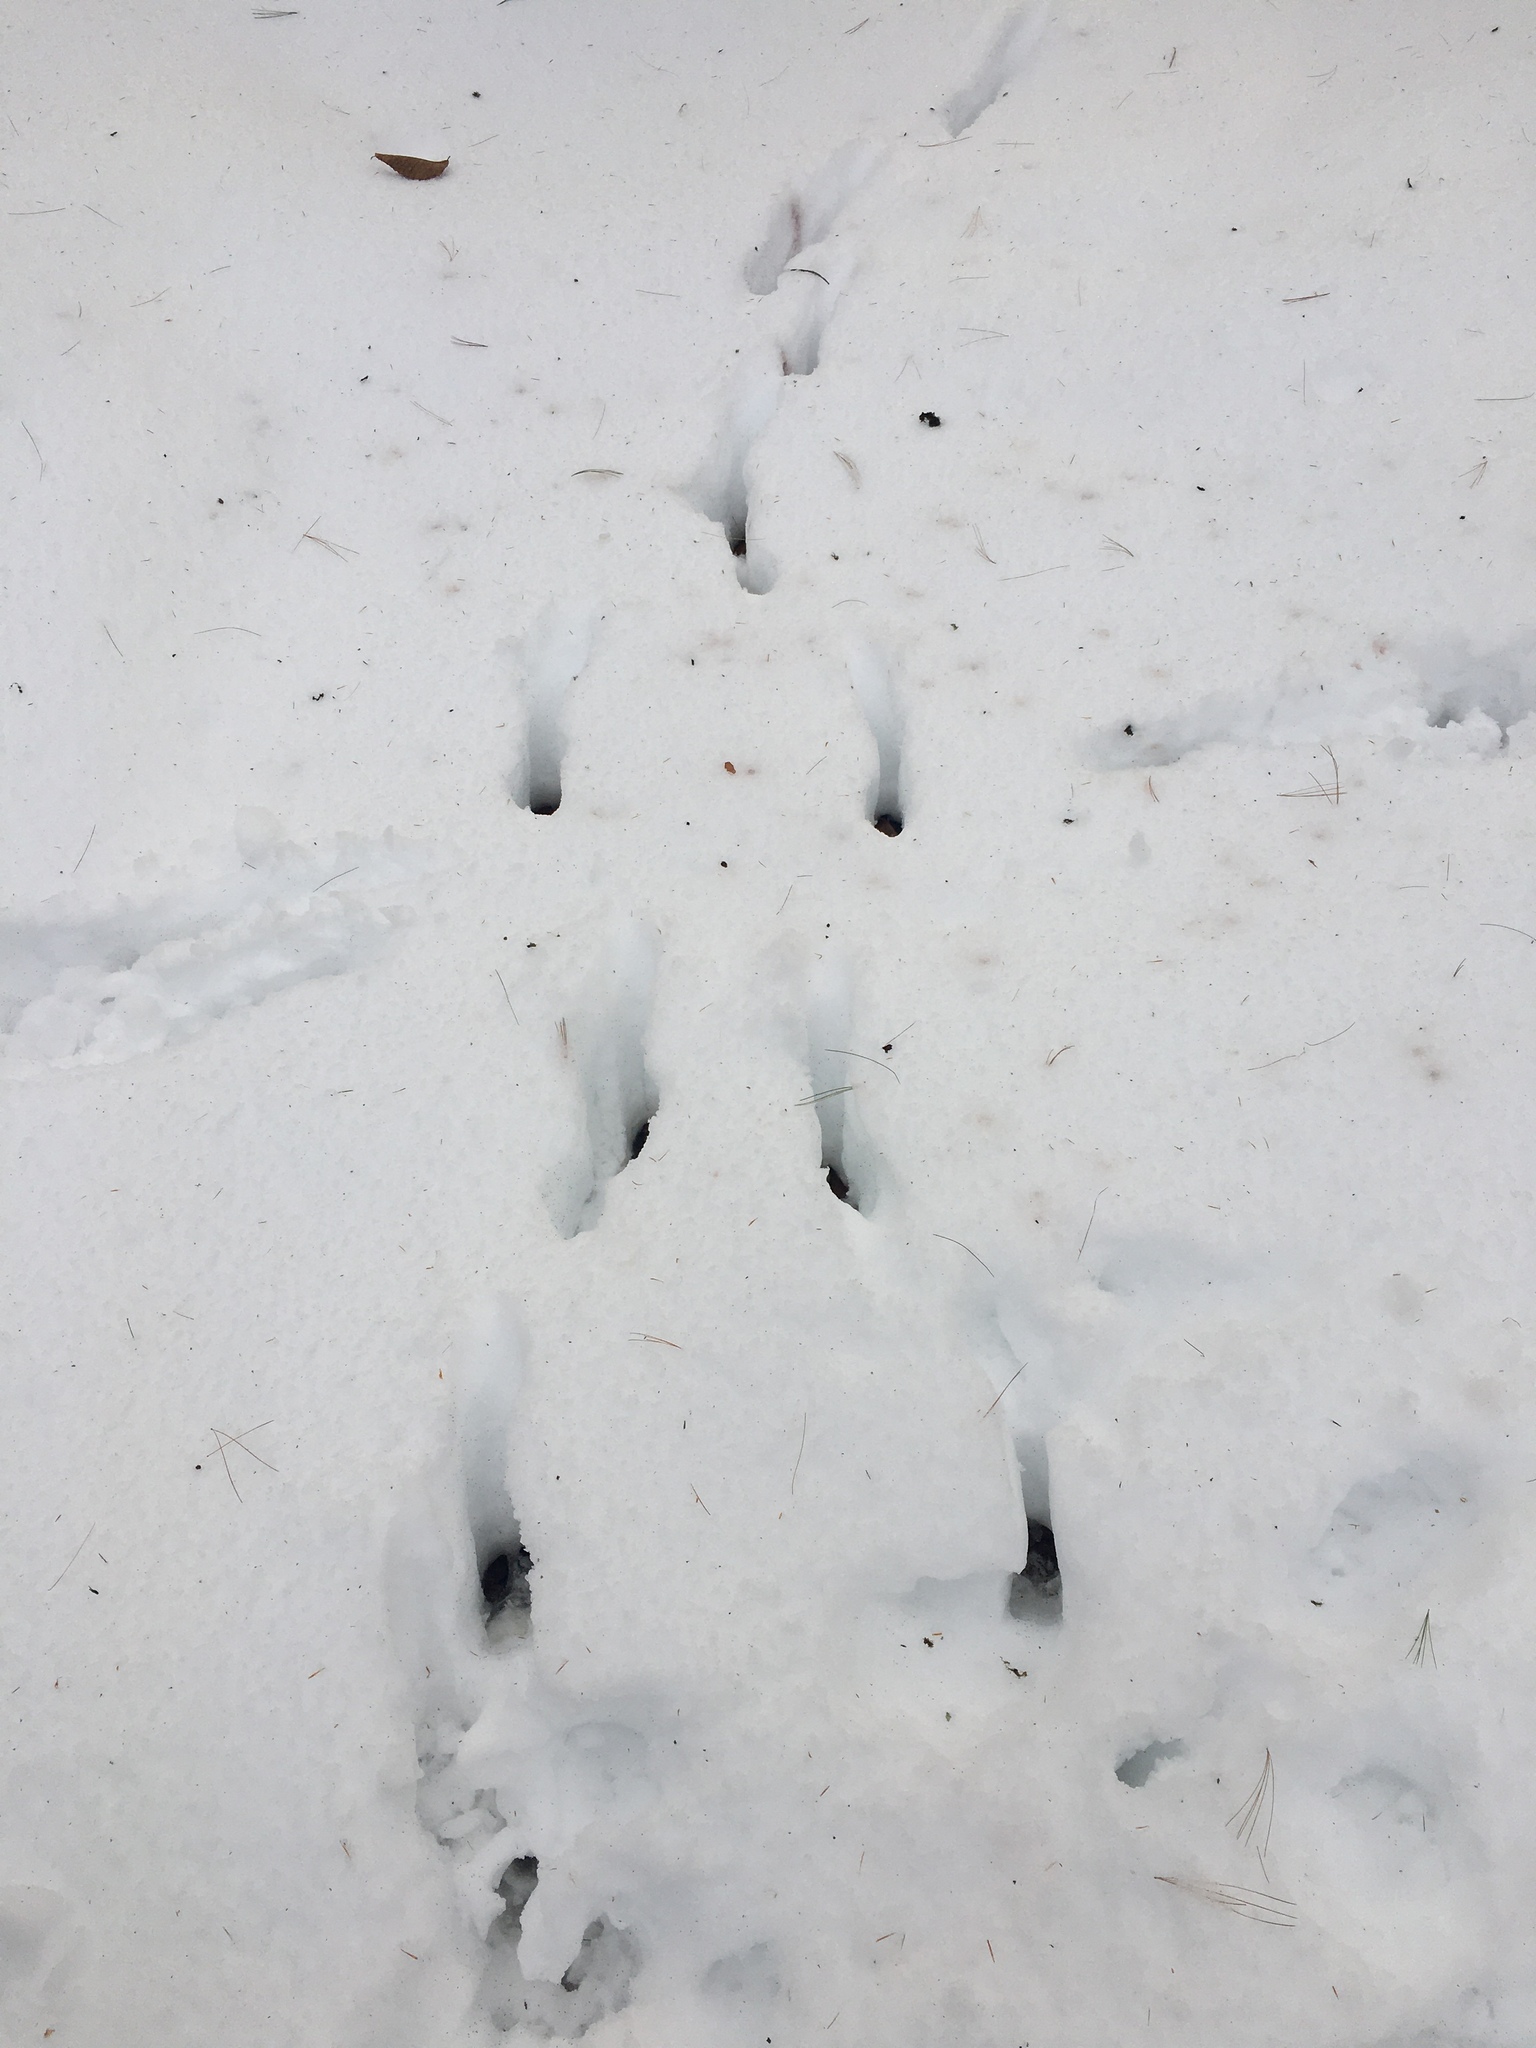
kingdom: Animalia
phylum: Chordata
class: Mammalia
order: Artiodactyla
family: Cervidae
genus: Odocoileus
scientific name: Odocoileus virginianus
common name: White-tailed deer
